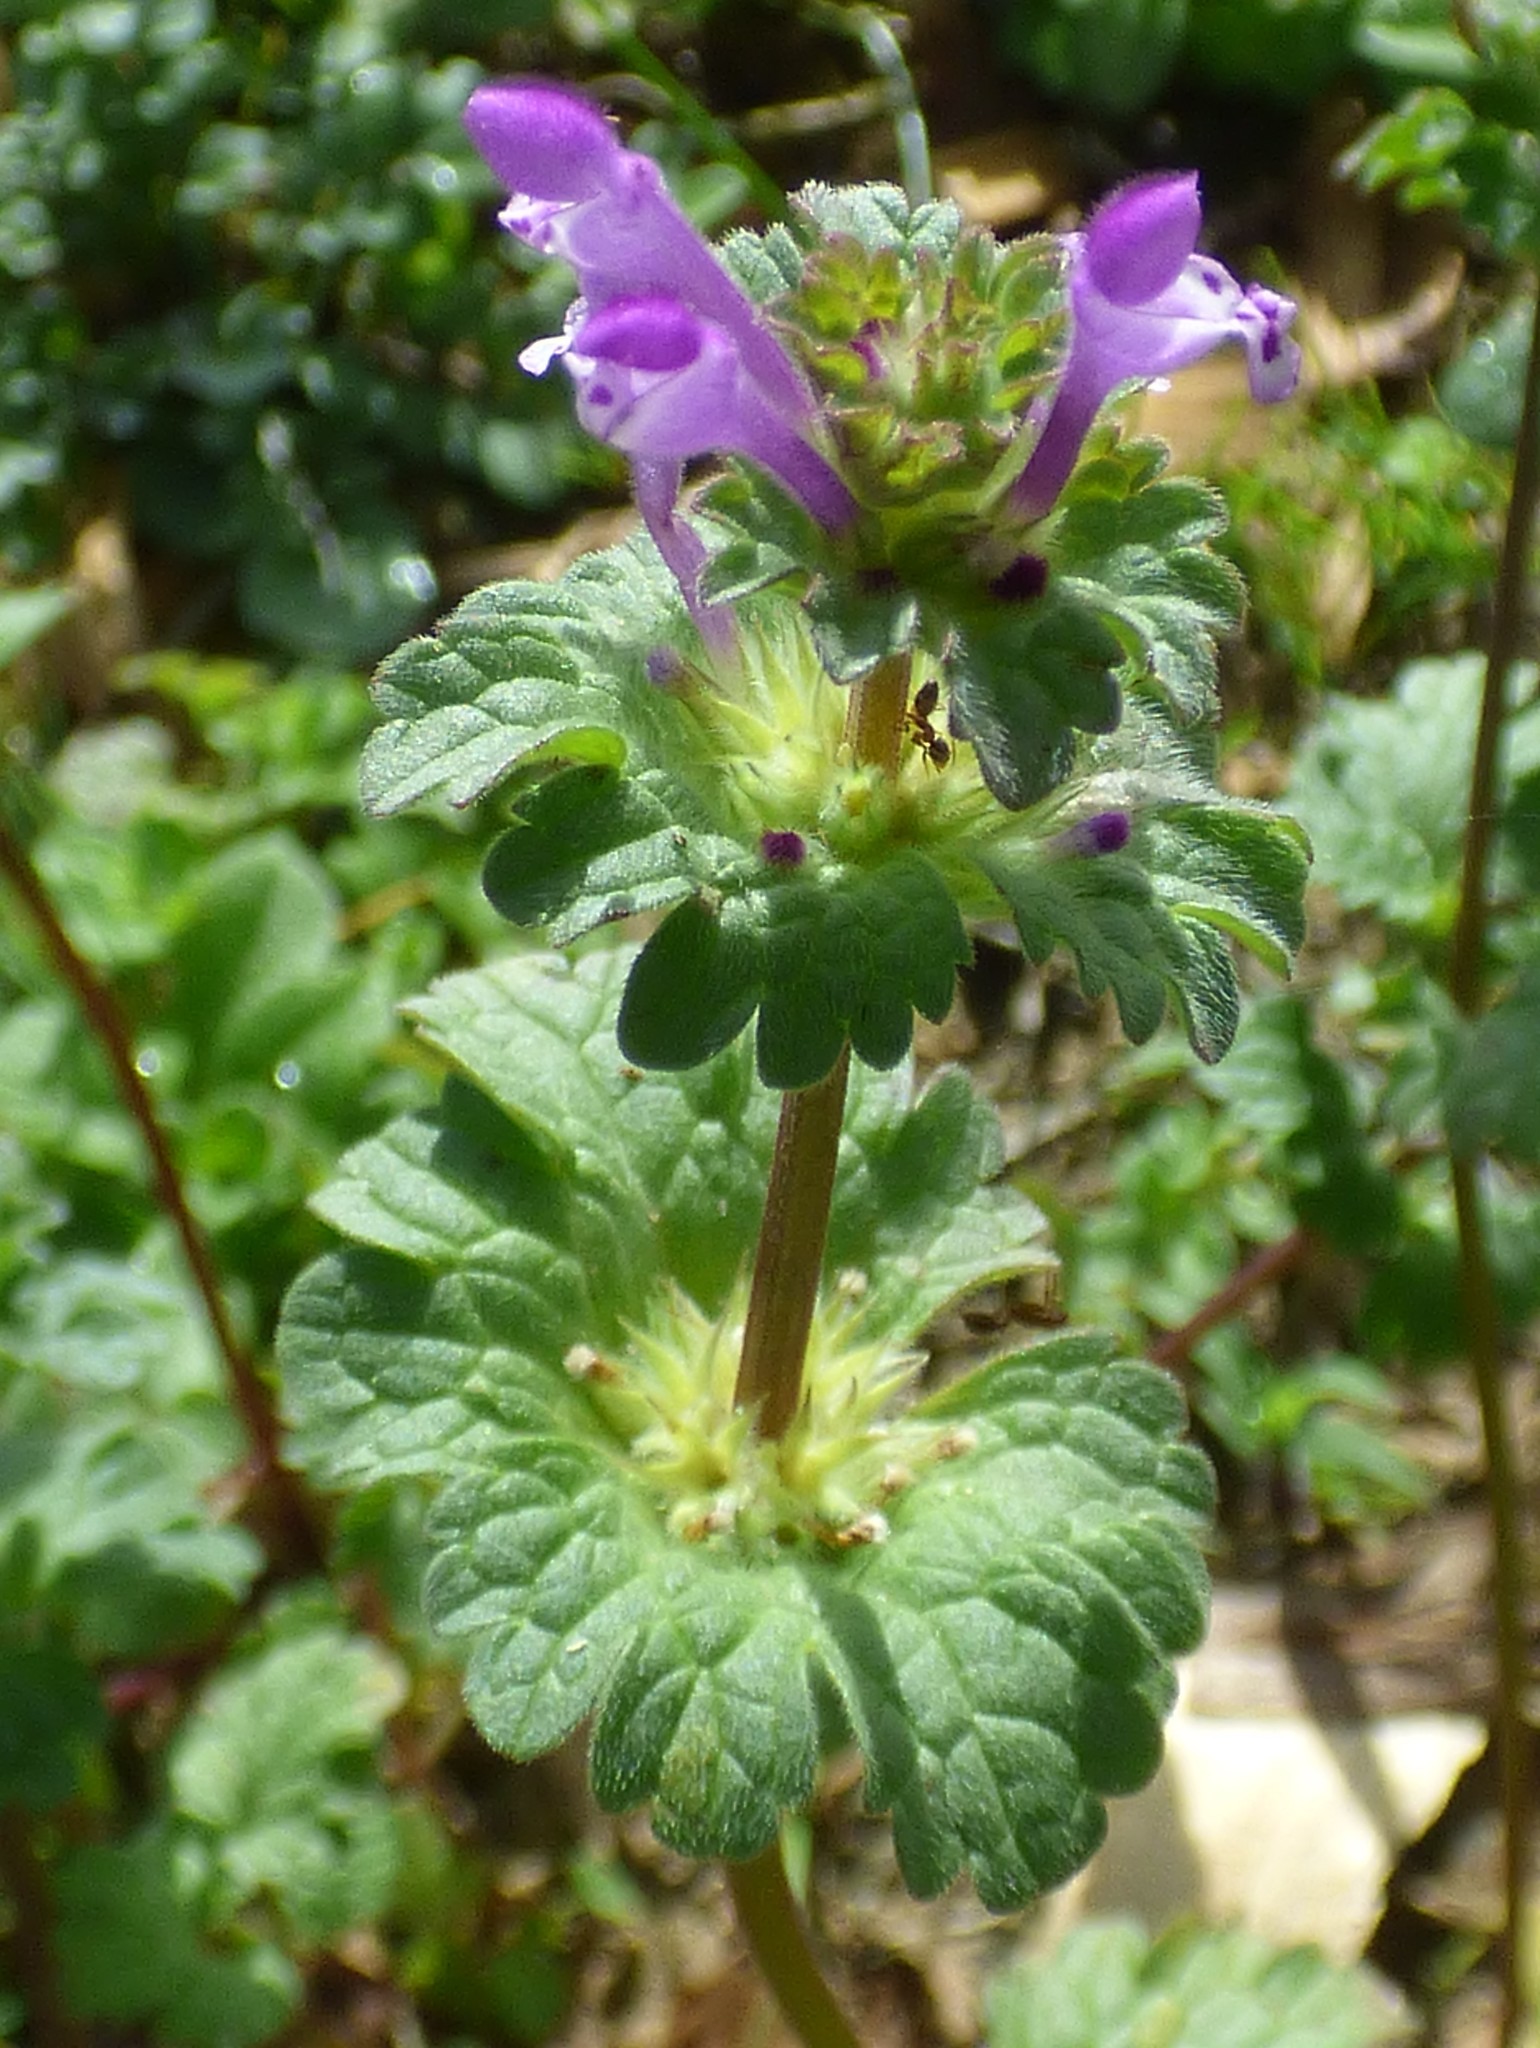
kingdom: Plantae
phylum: Tracheophyta
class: Magnoliopsida
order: Lamiales
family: Lamiaceae
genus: Lamium
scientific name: Lamium amplexicaule
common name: Henbit dead-nettle
